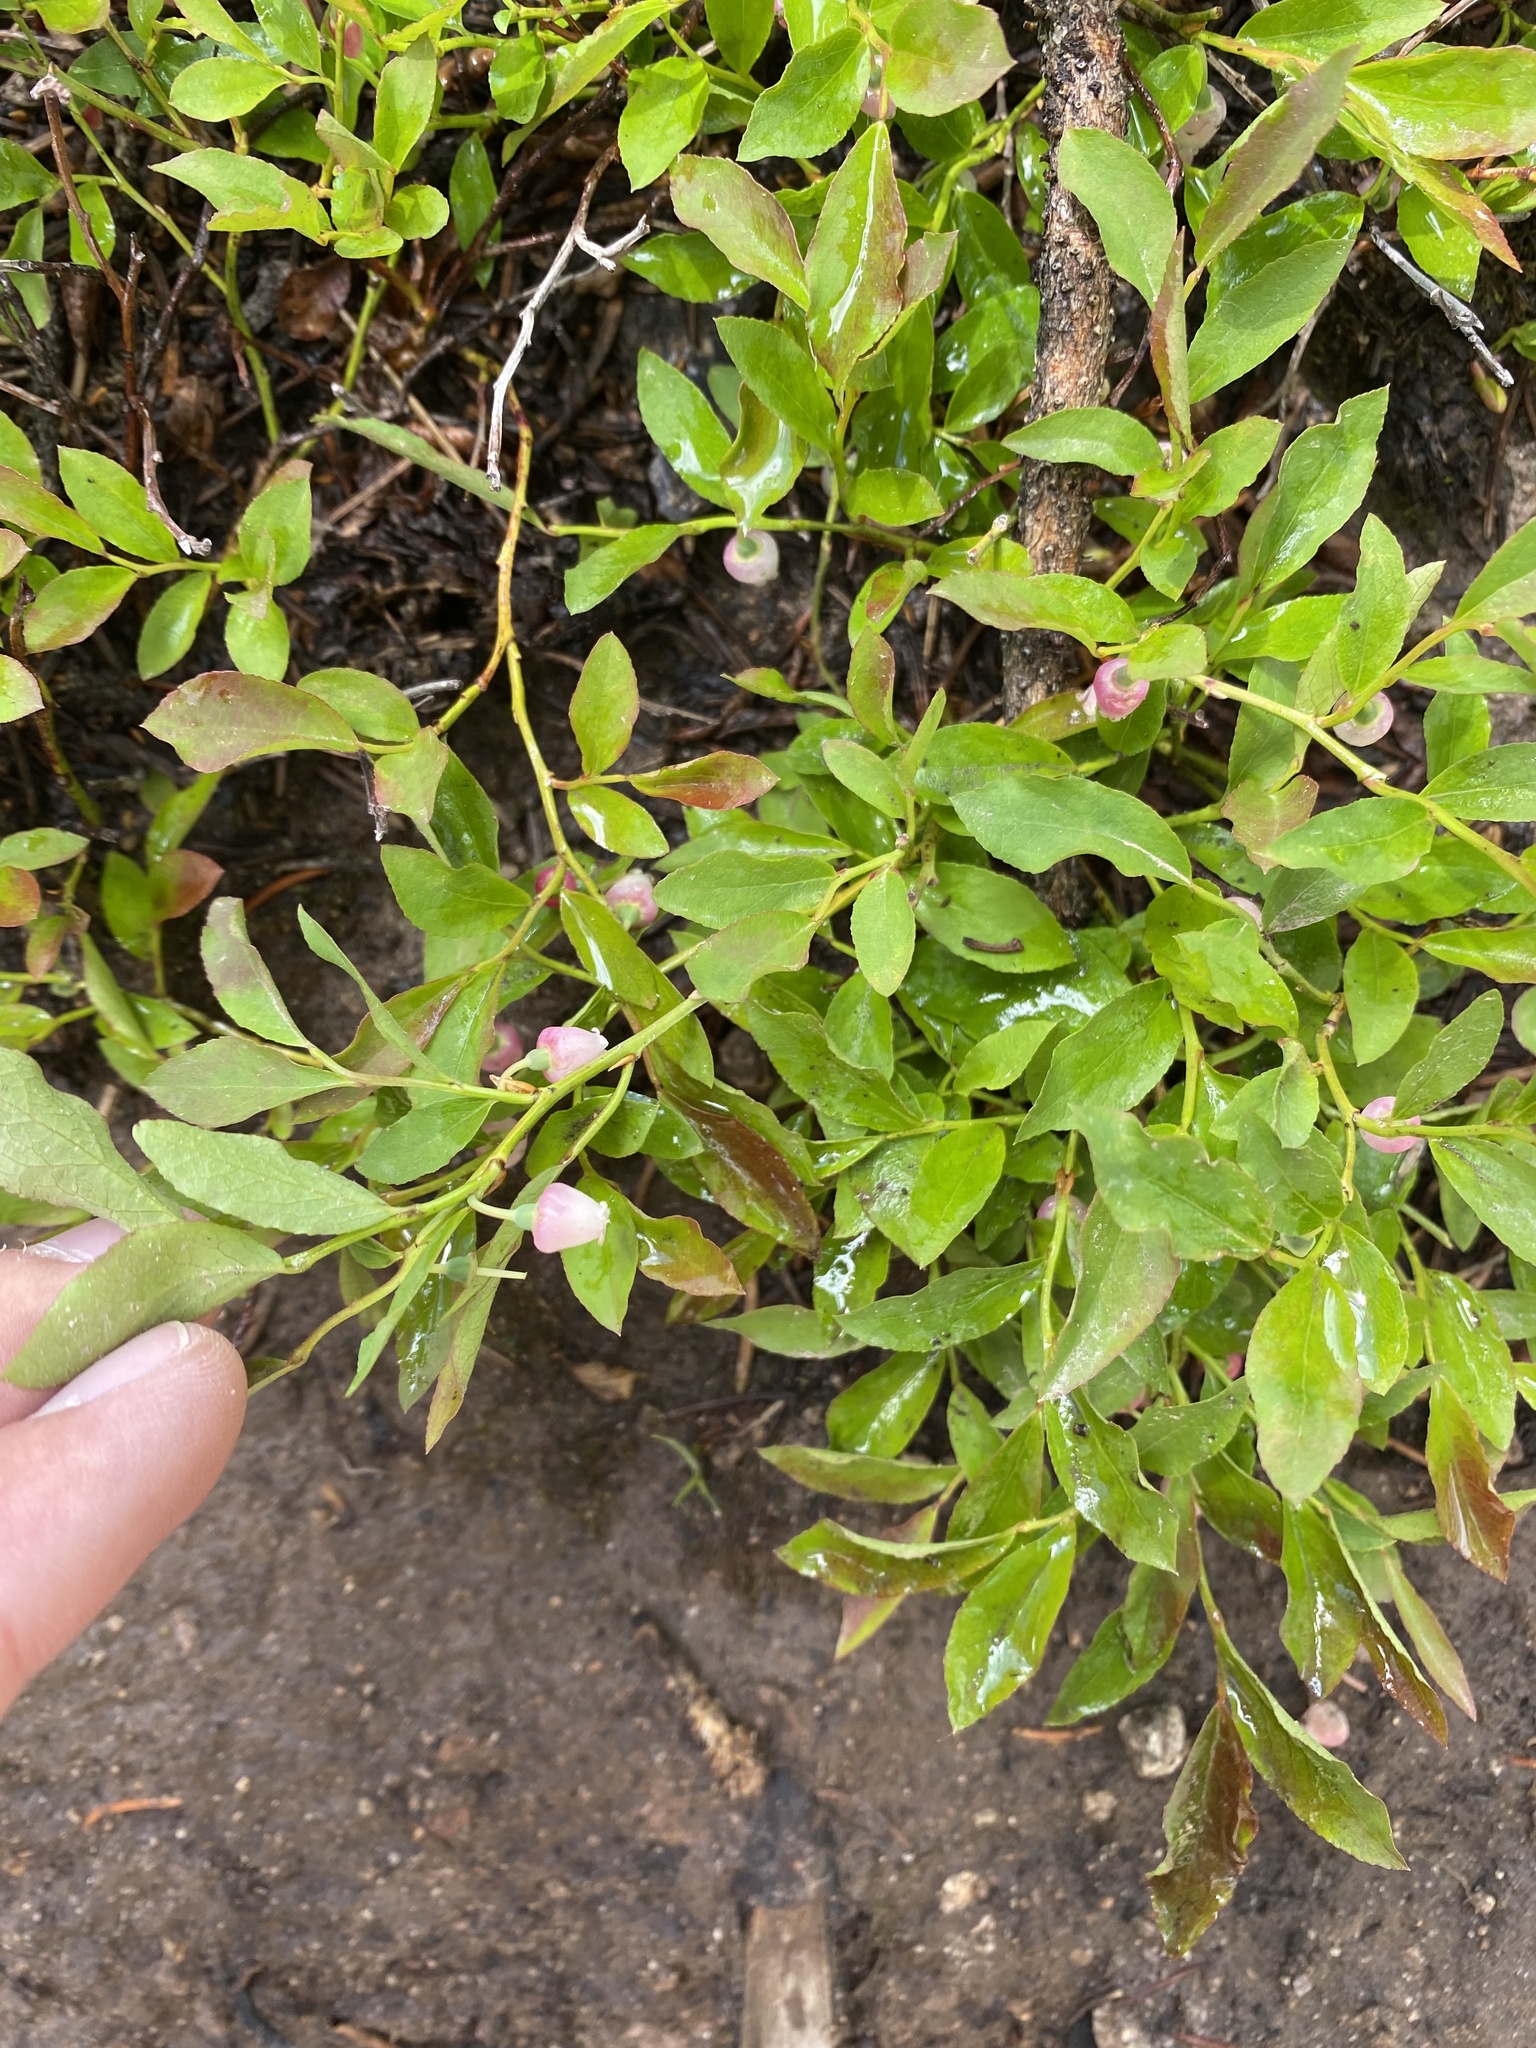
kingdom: Plantae
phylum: Tracheophyta
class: Magnoliopsida
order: Ericales
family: Ericaceae
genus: Vaccinium
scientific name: Vaccinium myrtillus
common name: Bilberry
